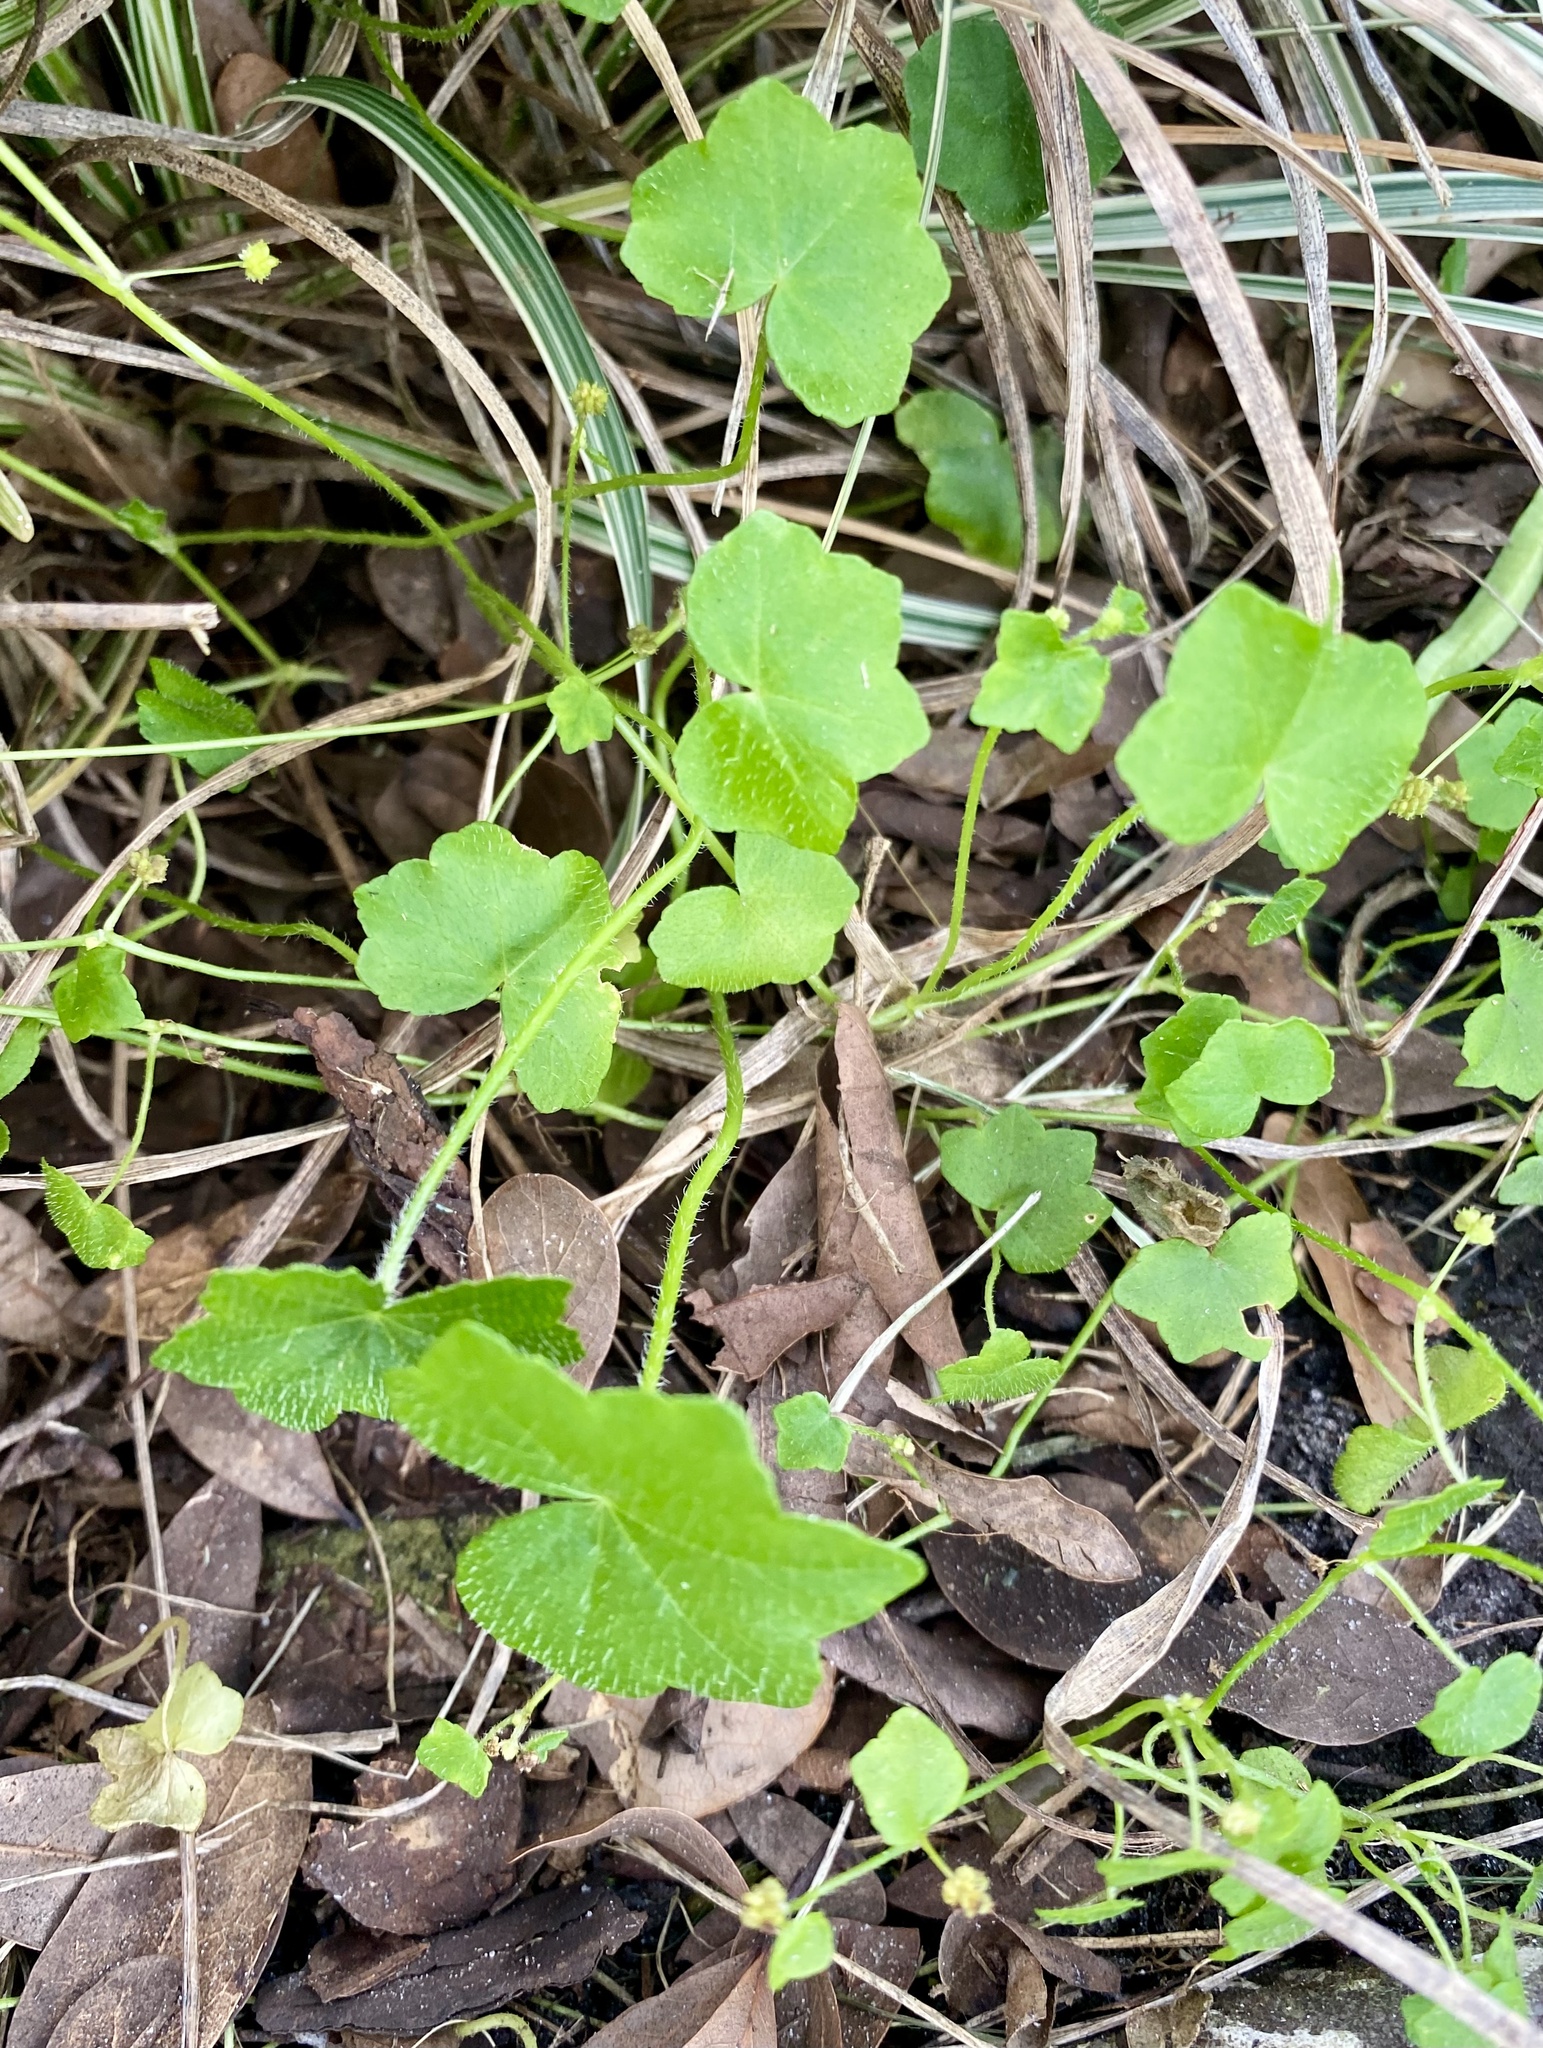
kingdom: Plantae
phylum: Tracheophyta
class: Magnoliopsida
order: Cucurbitales
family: Cucurbitaceae
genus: Melothria
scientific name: Melothria pendula
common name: Creeping-cucumber
